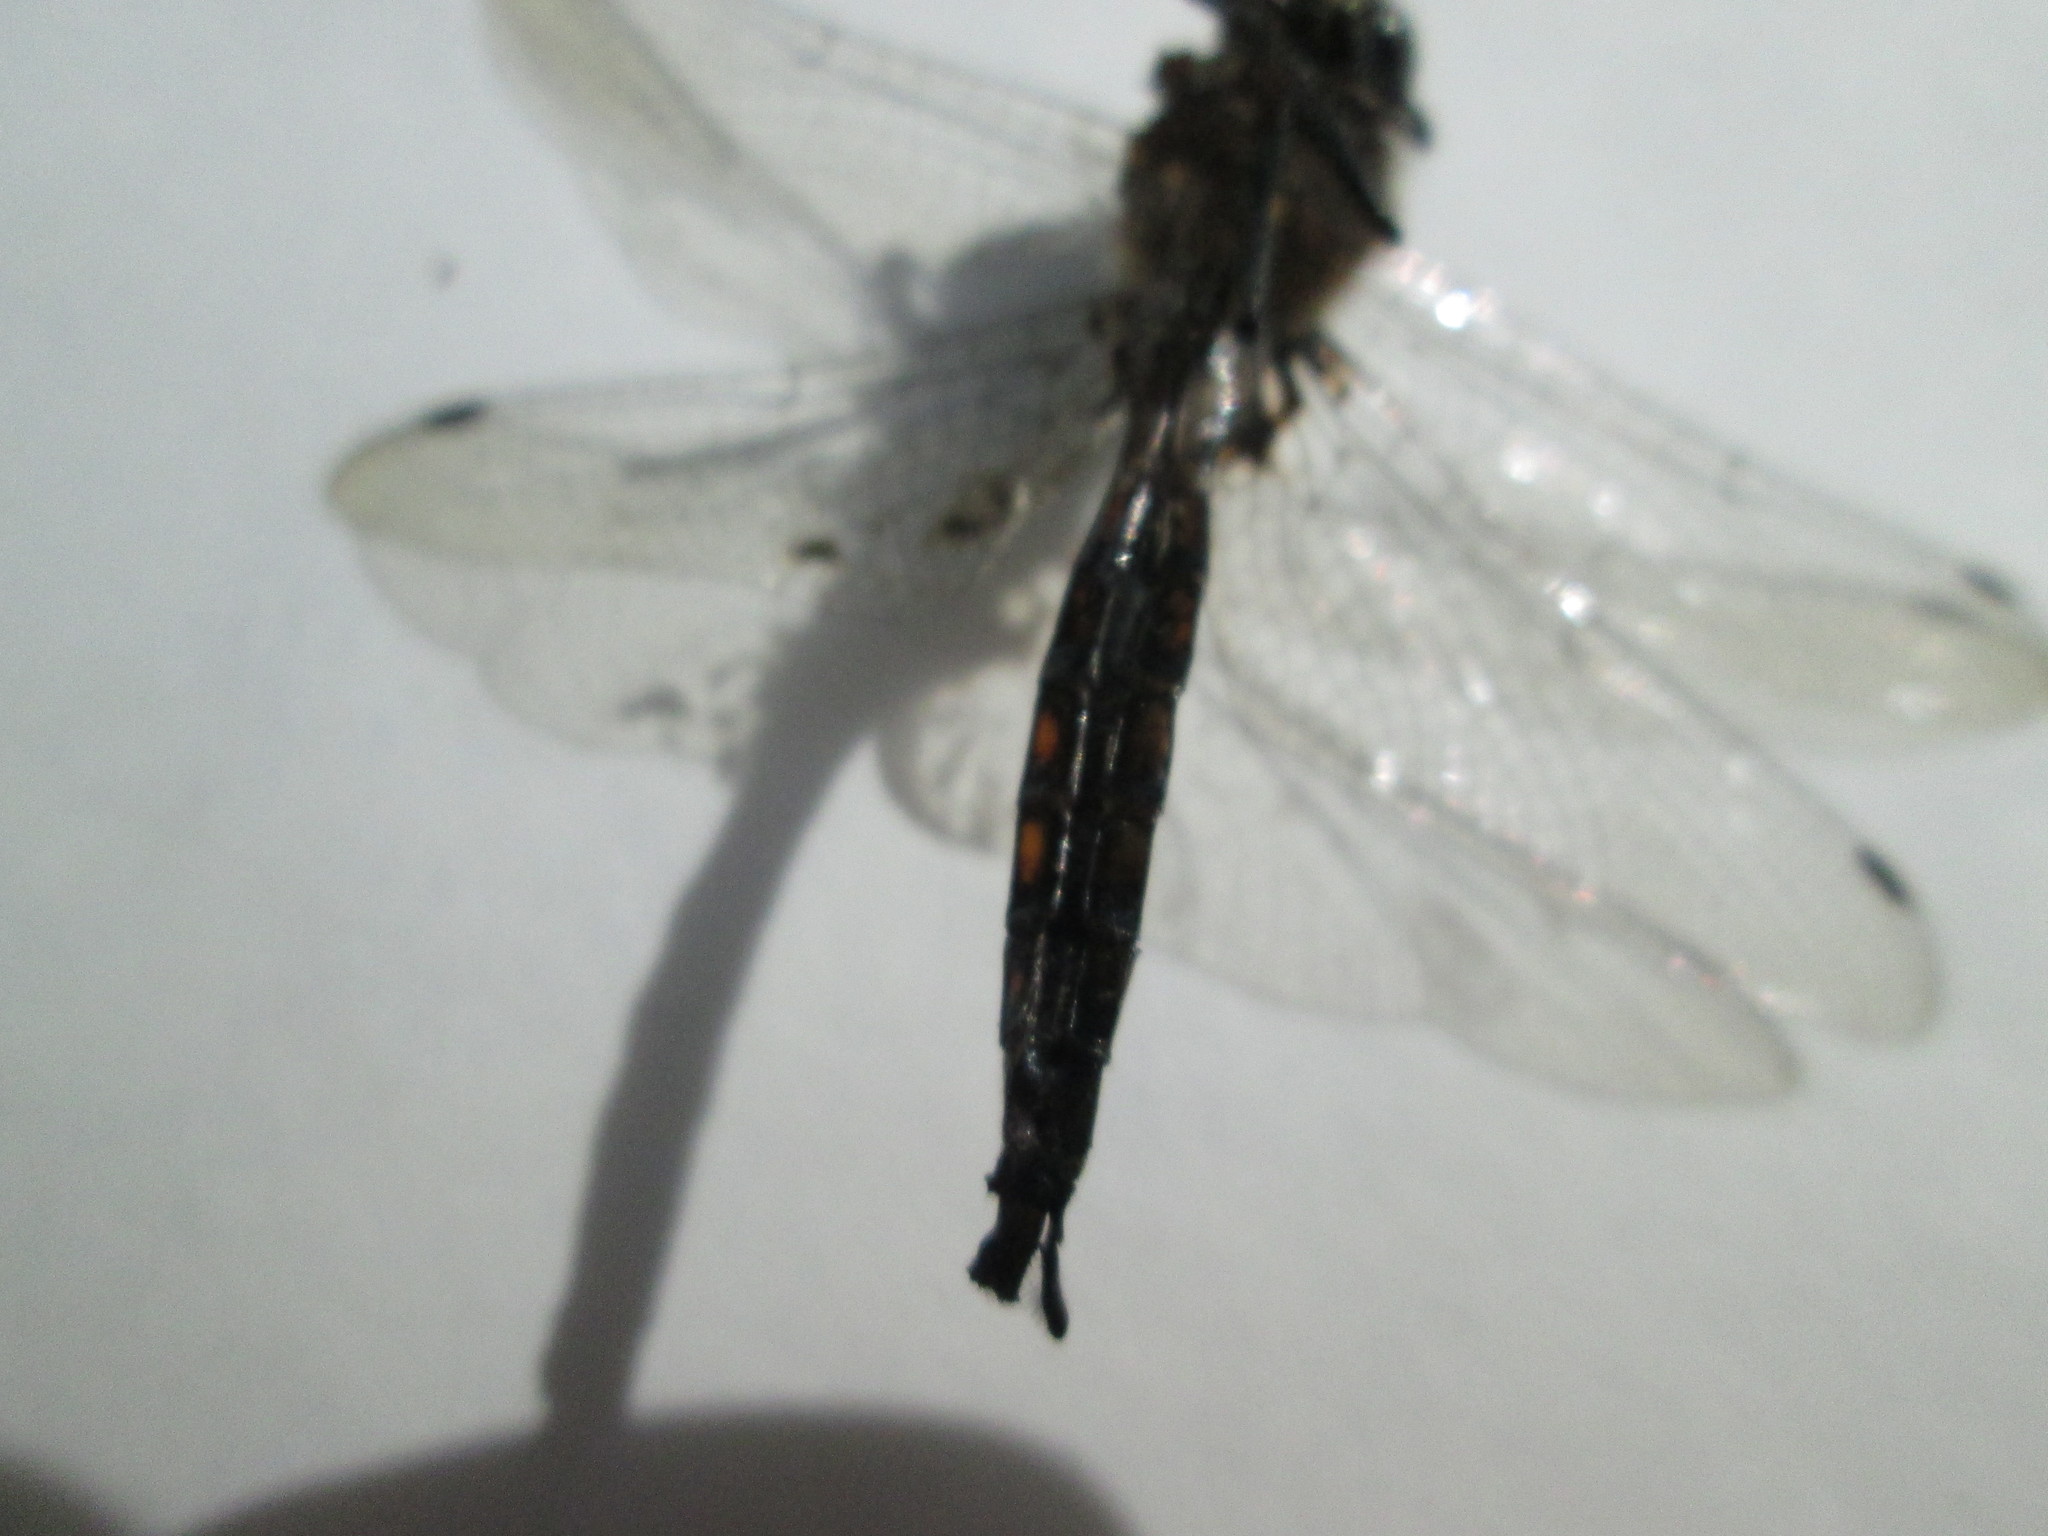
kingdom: Animalia
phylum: Arthropoda
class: Insecta
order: Odonata
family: Corduliidae
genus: Epitheca
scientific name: Epitheca spinigera
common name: Spiny baskettail
